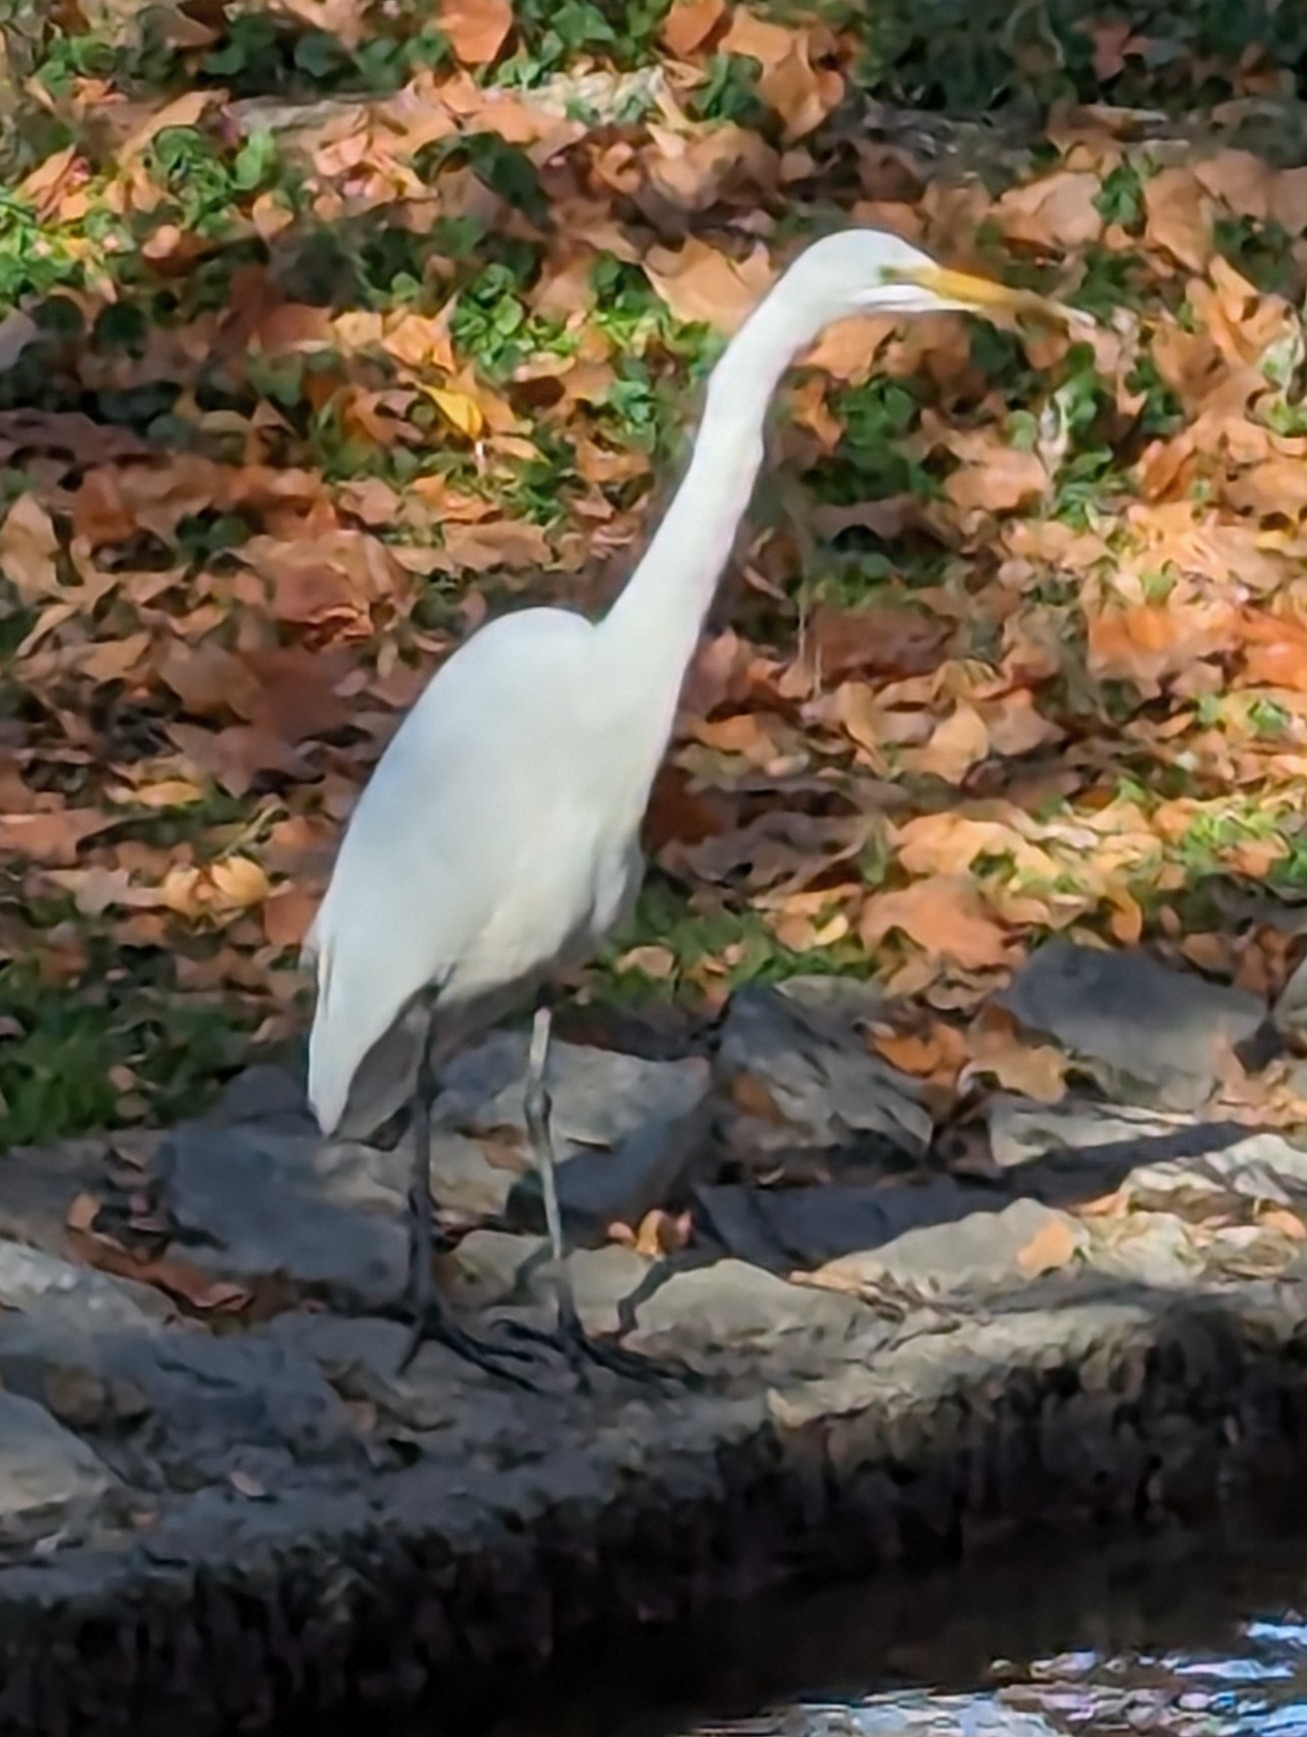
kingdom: Animalia
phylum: Chordata
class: Aves
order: Pelecaniformes
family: Ardeidae
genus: Ardea
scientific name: Ardea alba
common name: Great egret
